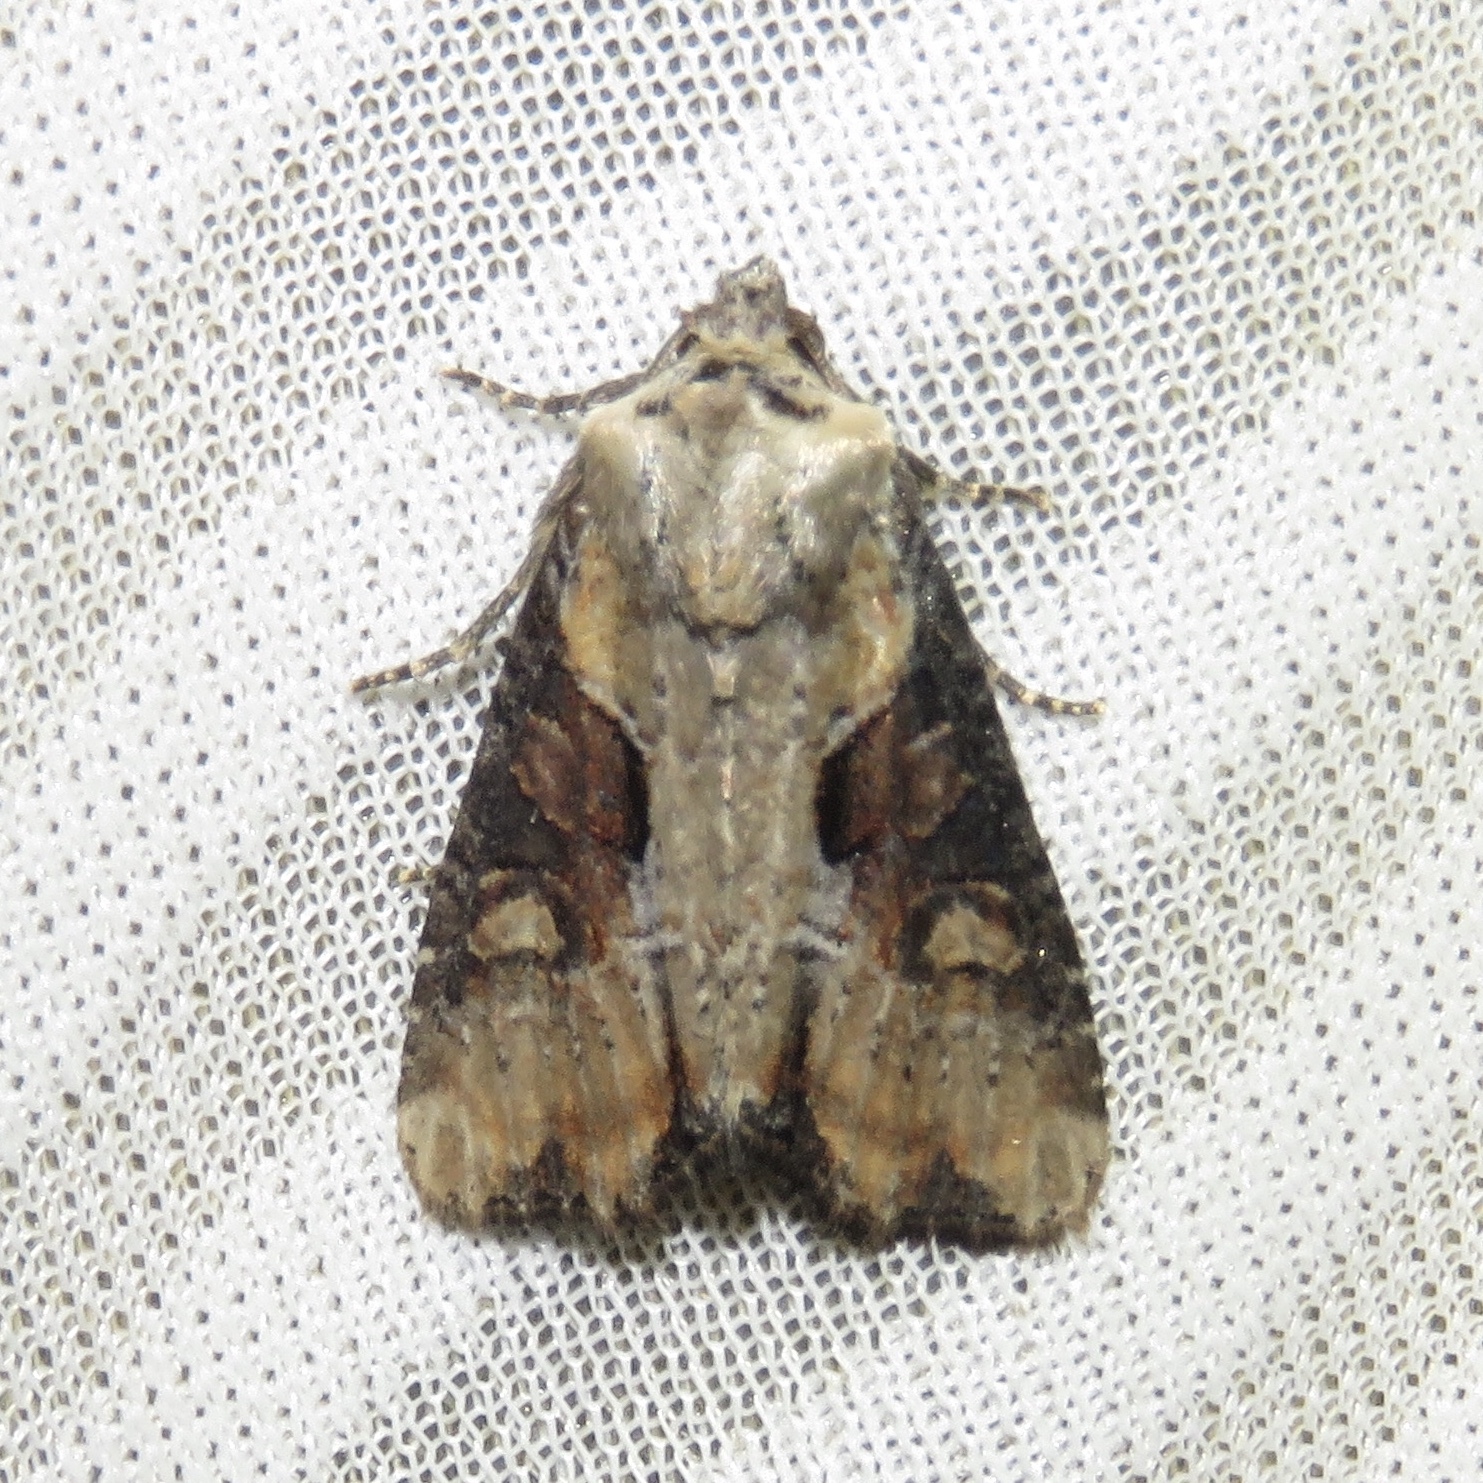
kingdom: Animalia
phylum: Arthropoda
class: Insecta
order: Lepidoptera
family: Noctuidae
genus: Lateroligia
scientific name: Lateroligia ophiogramma
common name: Double lobed
